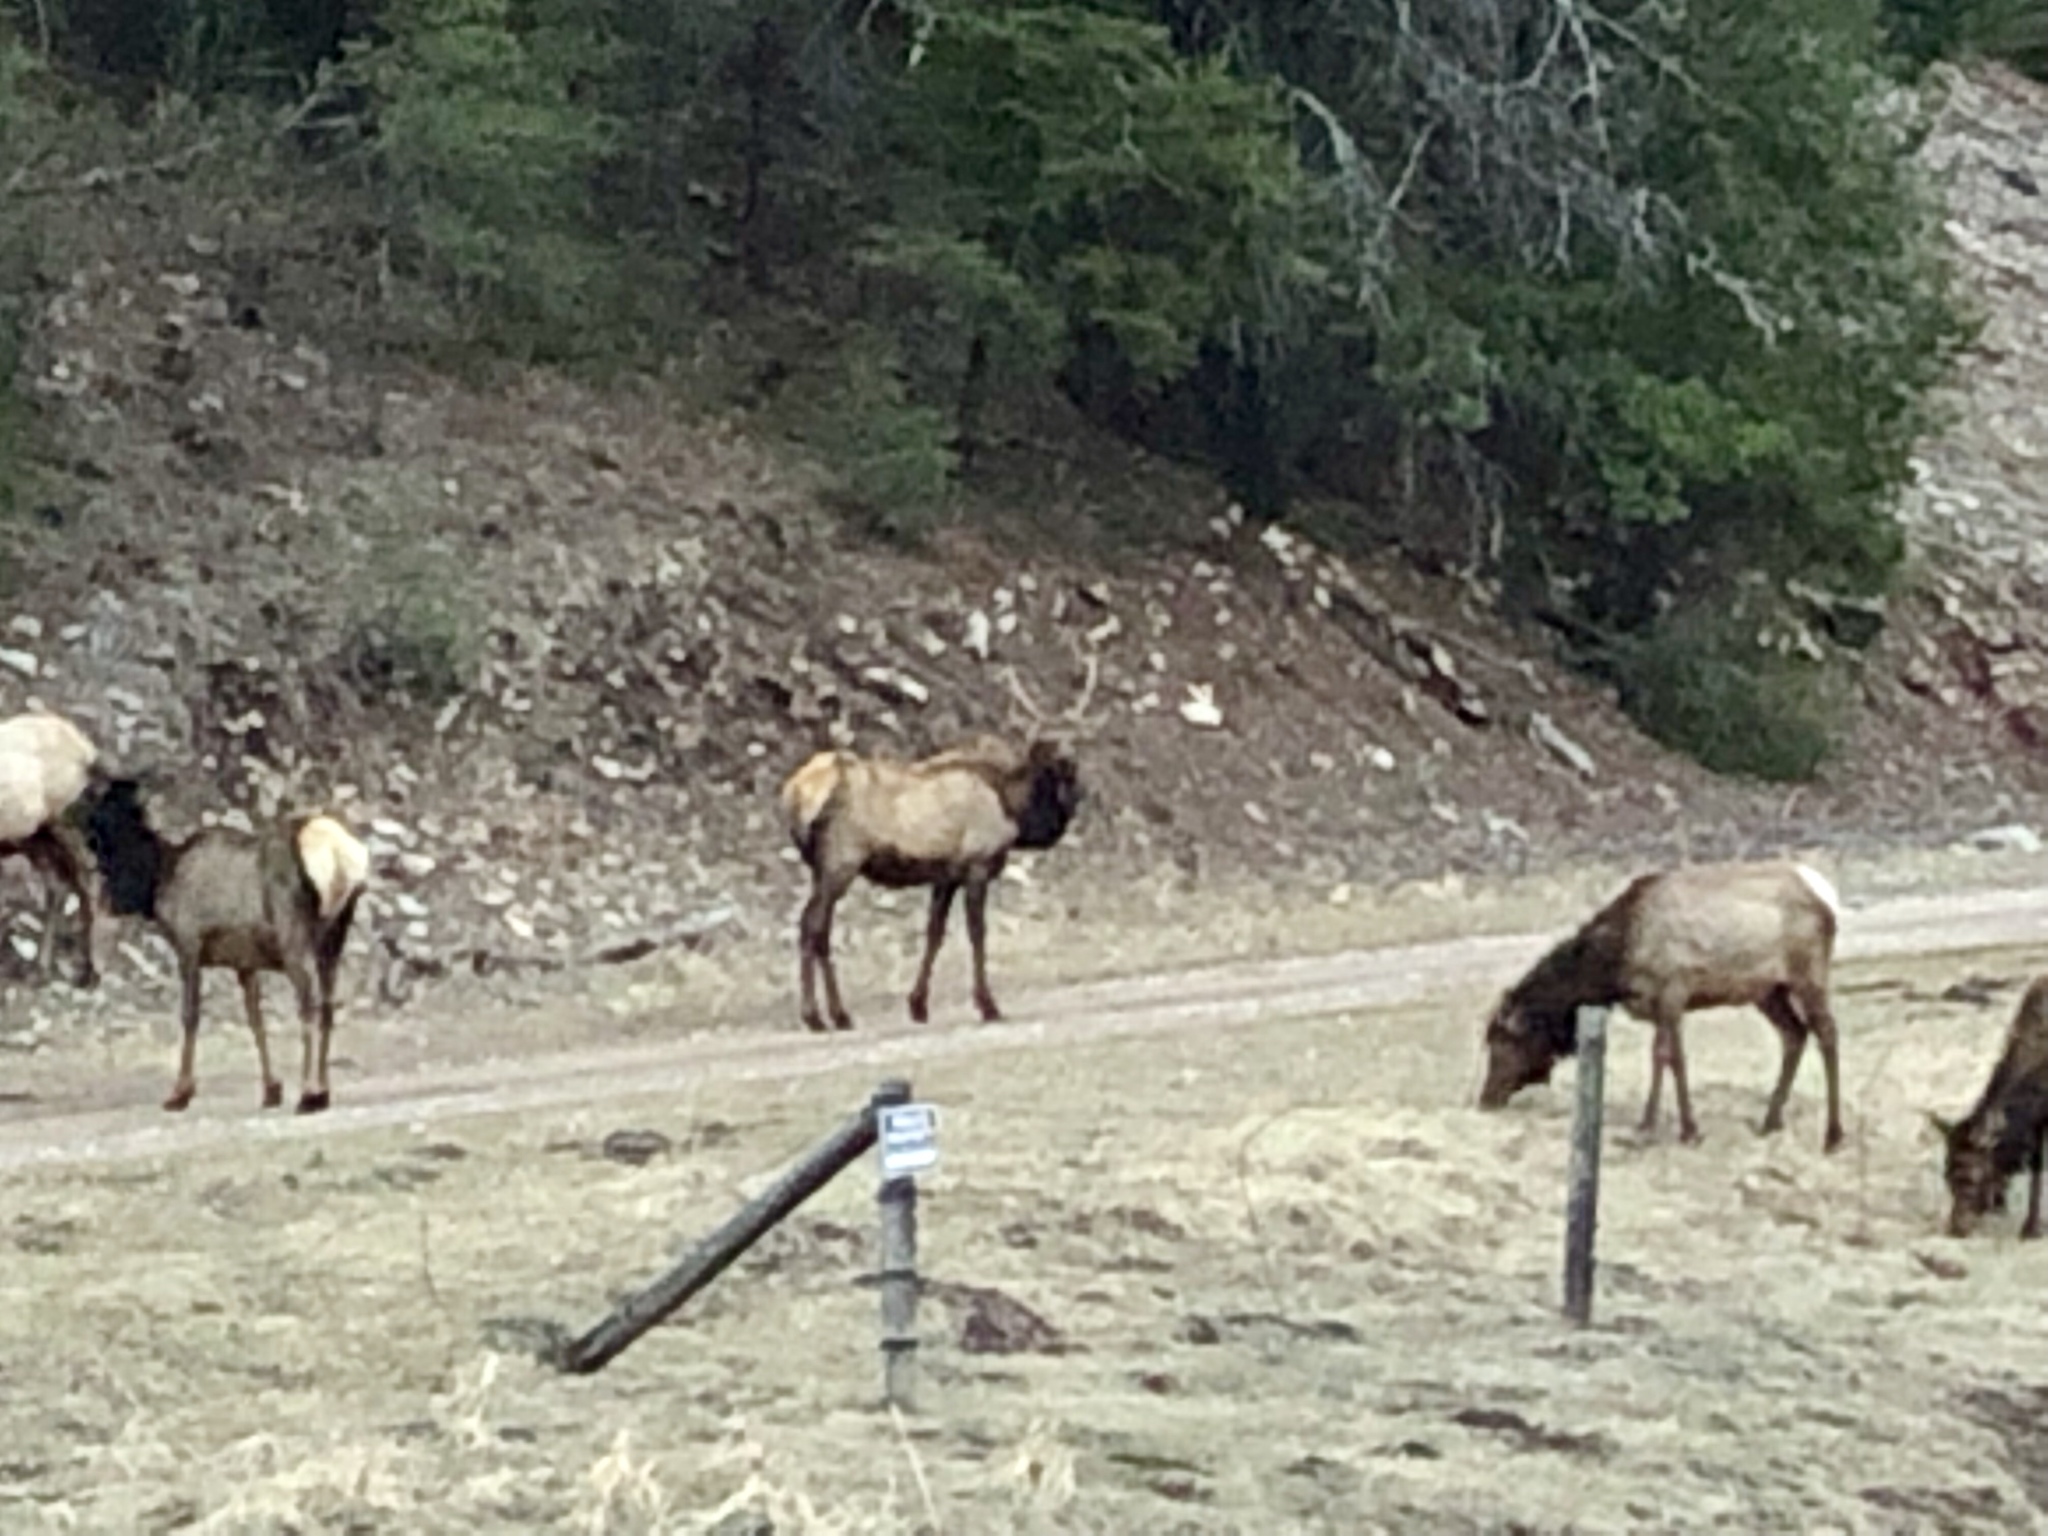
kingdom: Animalia
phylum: Chordata
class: Mammalia
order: Artiodactyla
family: Cervidae
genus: Cervus
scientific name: Cervus elaphus
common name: Red deer
